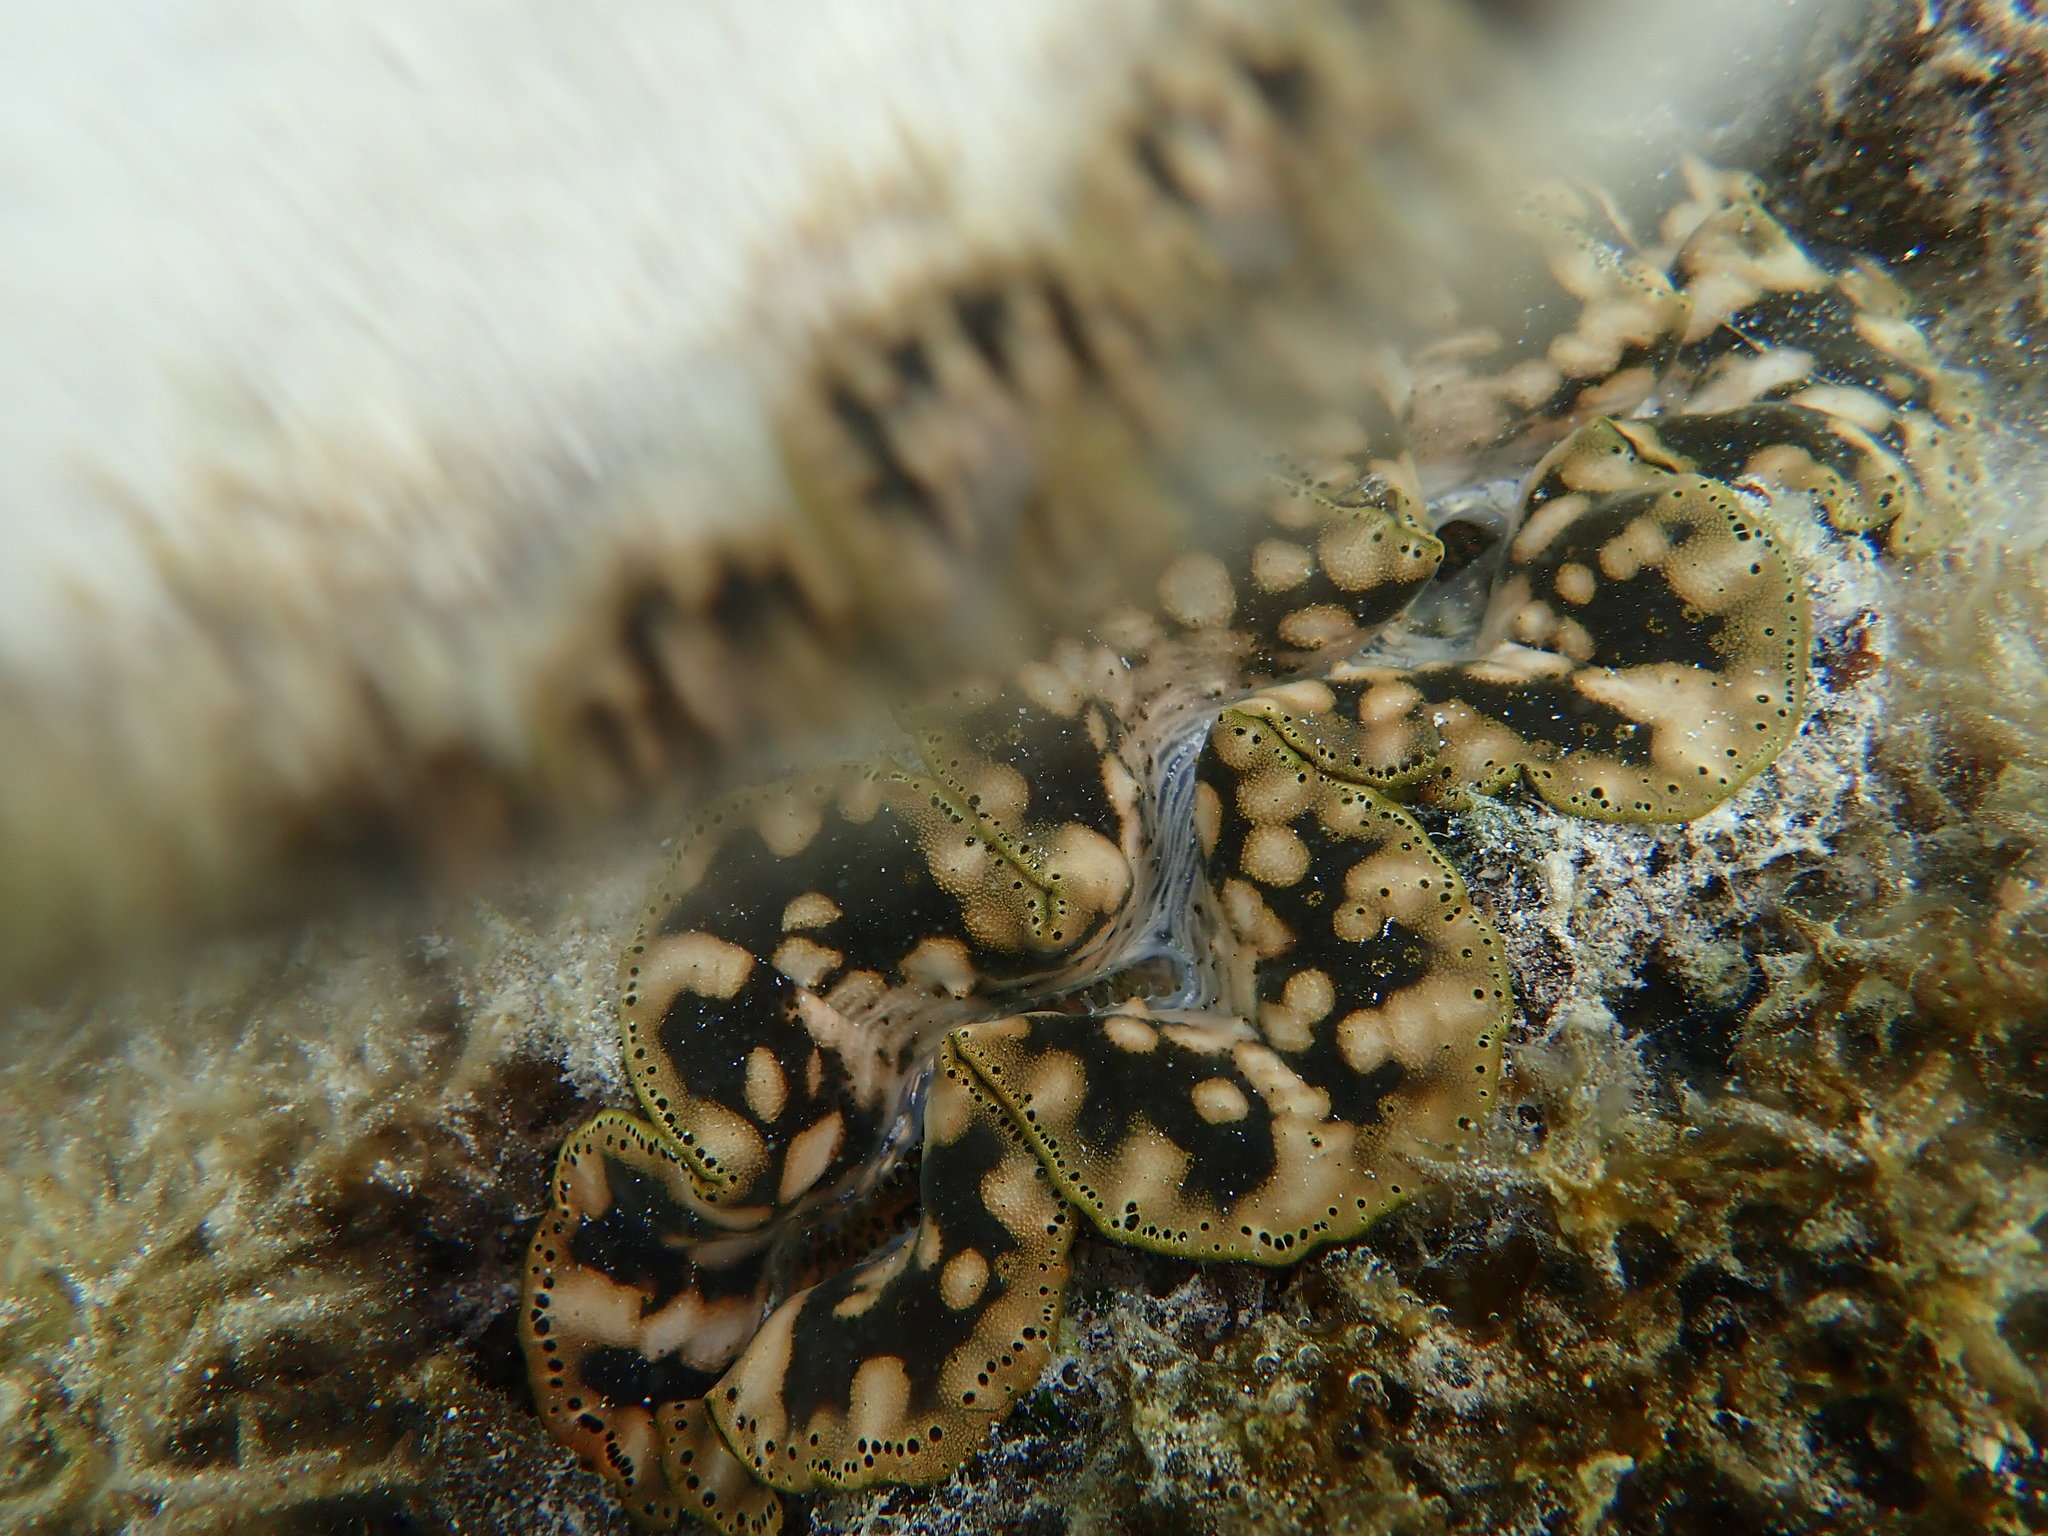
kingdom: Animalia
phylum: Mollusca
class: Bivalvia
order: Cardiida
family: Cardiidae
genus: Tridacna
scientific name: Tridacna maxima
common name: Small giant clam
